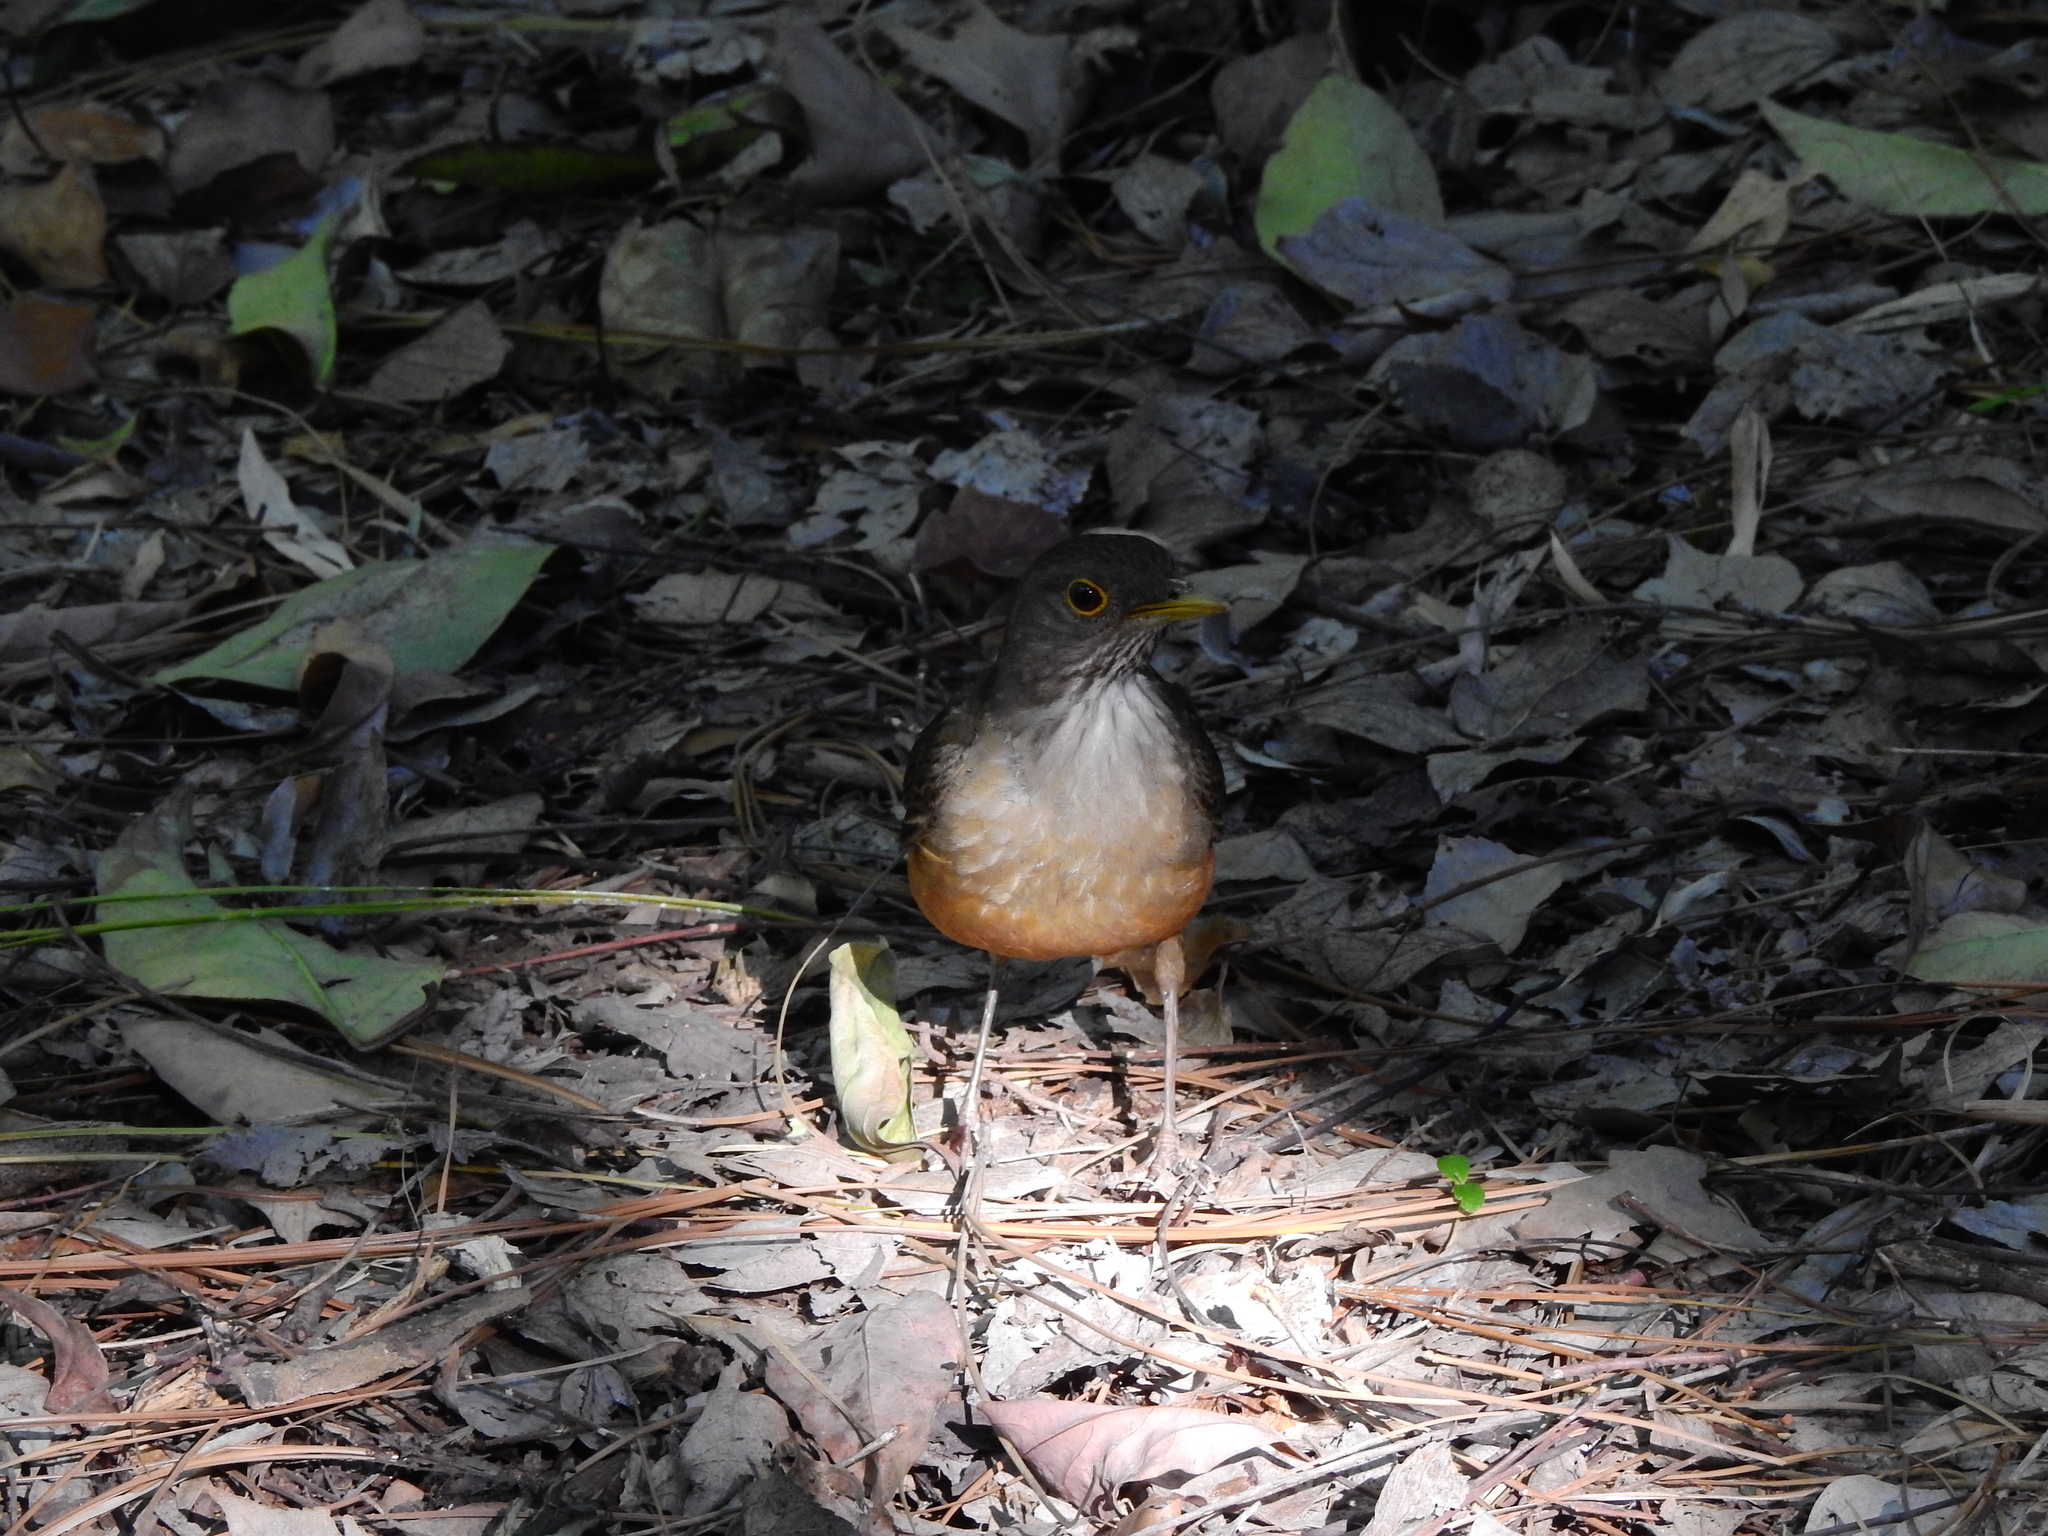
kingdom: Animalia
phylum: Chordata
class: Aves
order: Passeriformes
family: Turdidae
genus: Turdus
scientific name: Turdus rufiventris
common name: Rufous-bellied thrush
